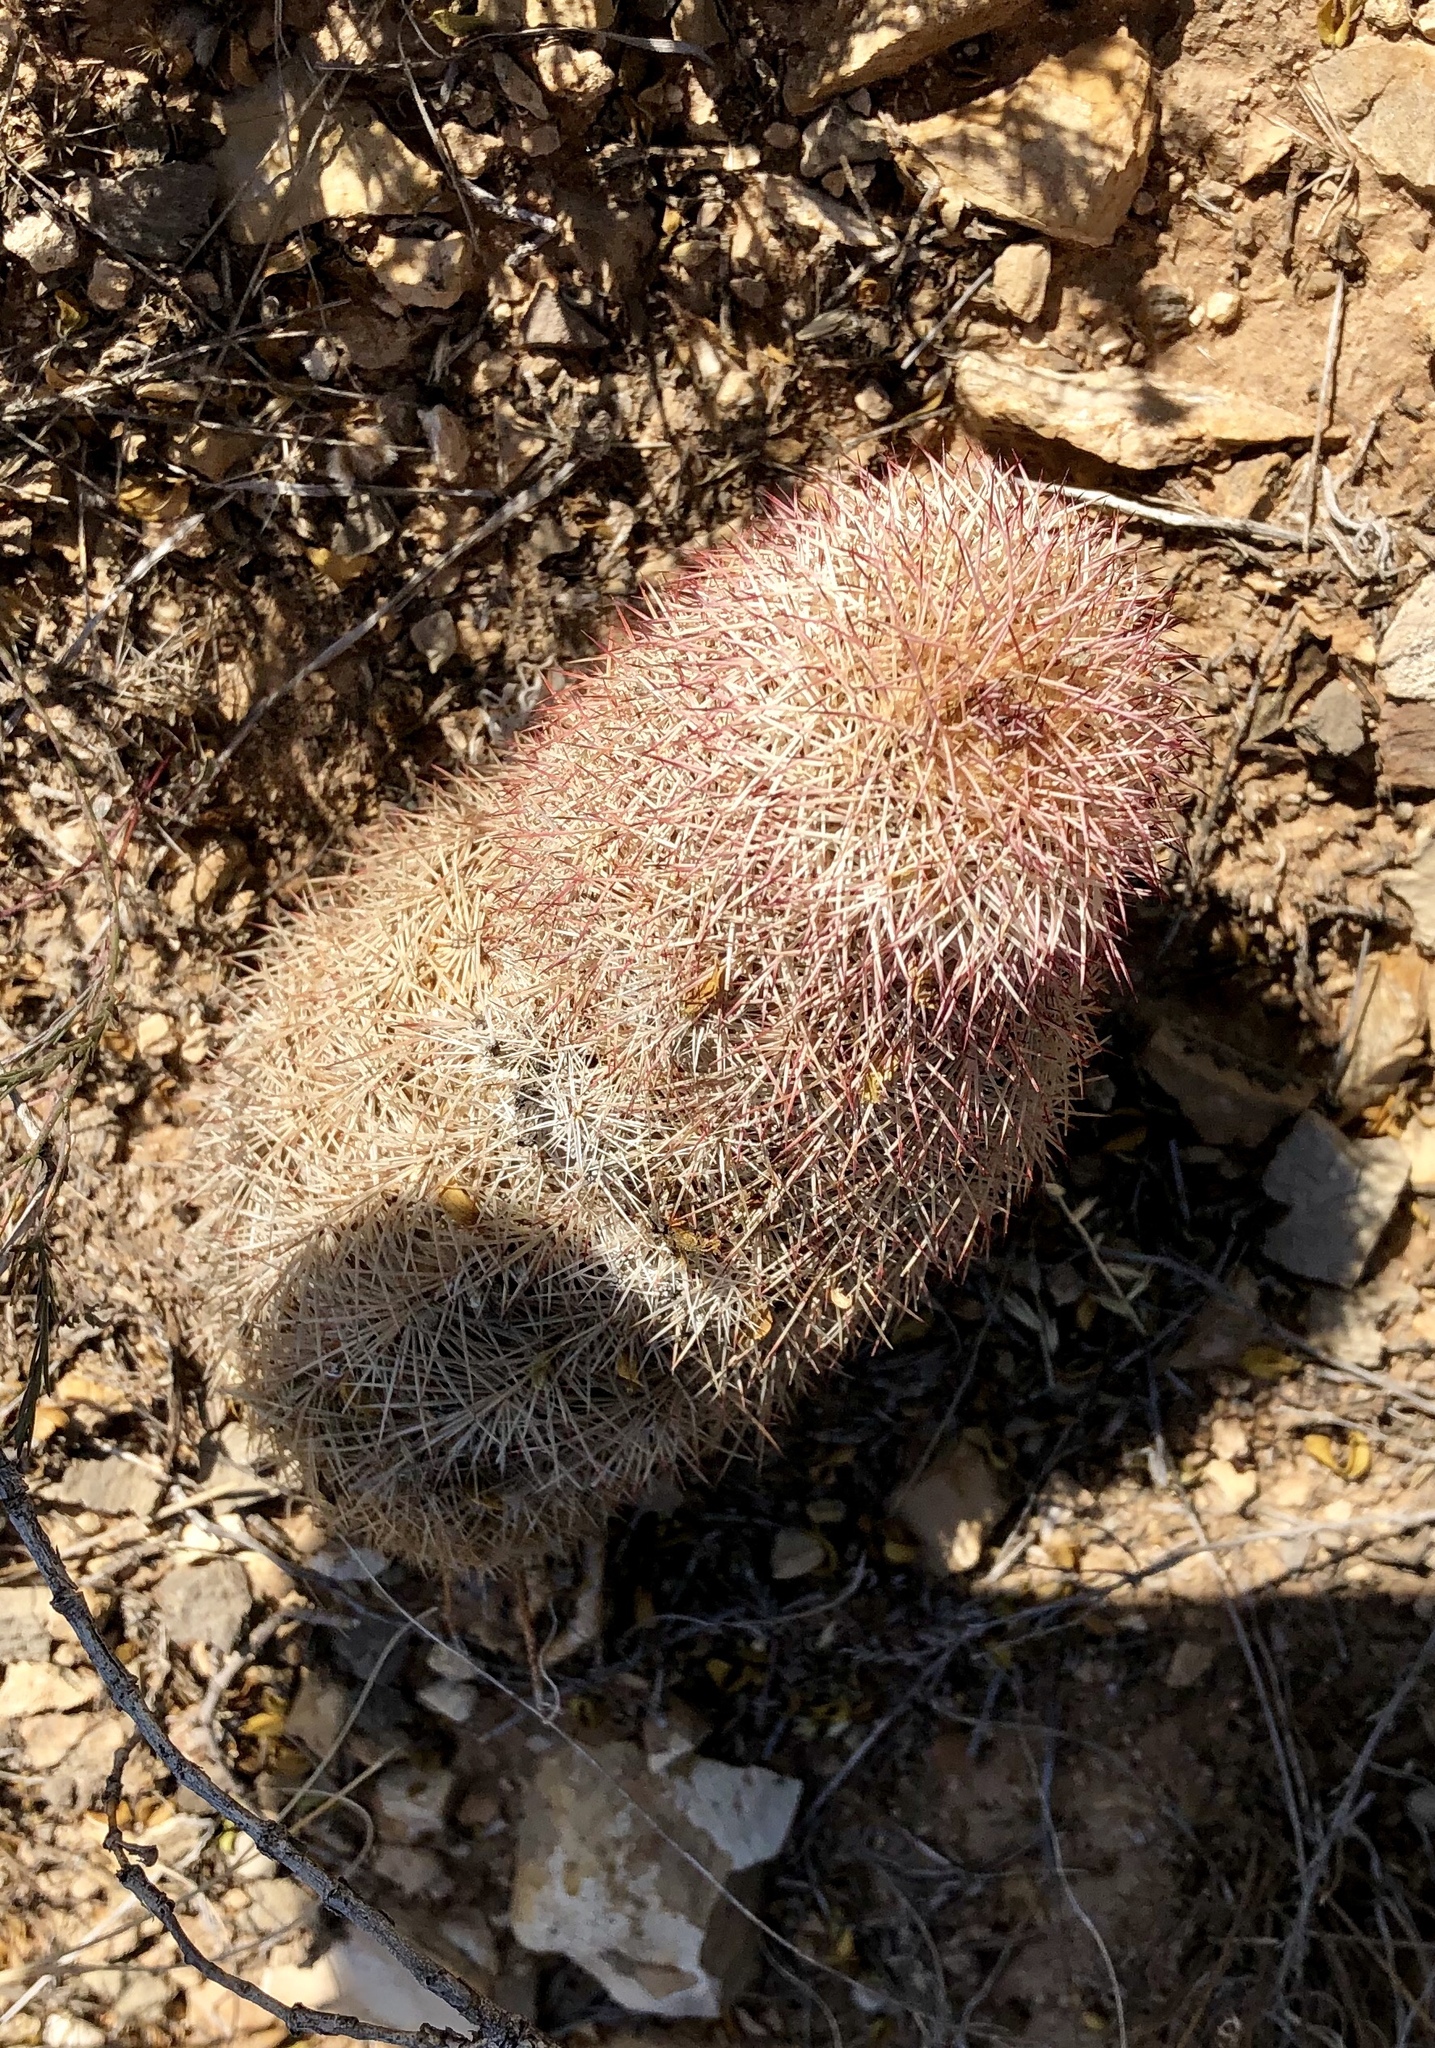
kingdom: Plantae
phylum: Tracheophyta
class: Magnoliopsida
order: Caryophyllales
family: Cactaceae
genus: Echinocereus
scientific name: Echinocereus dasyacanthus
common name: Spiny hedgehog cactus
